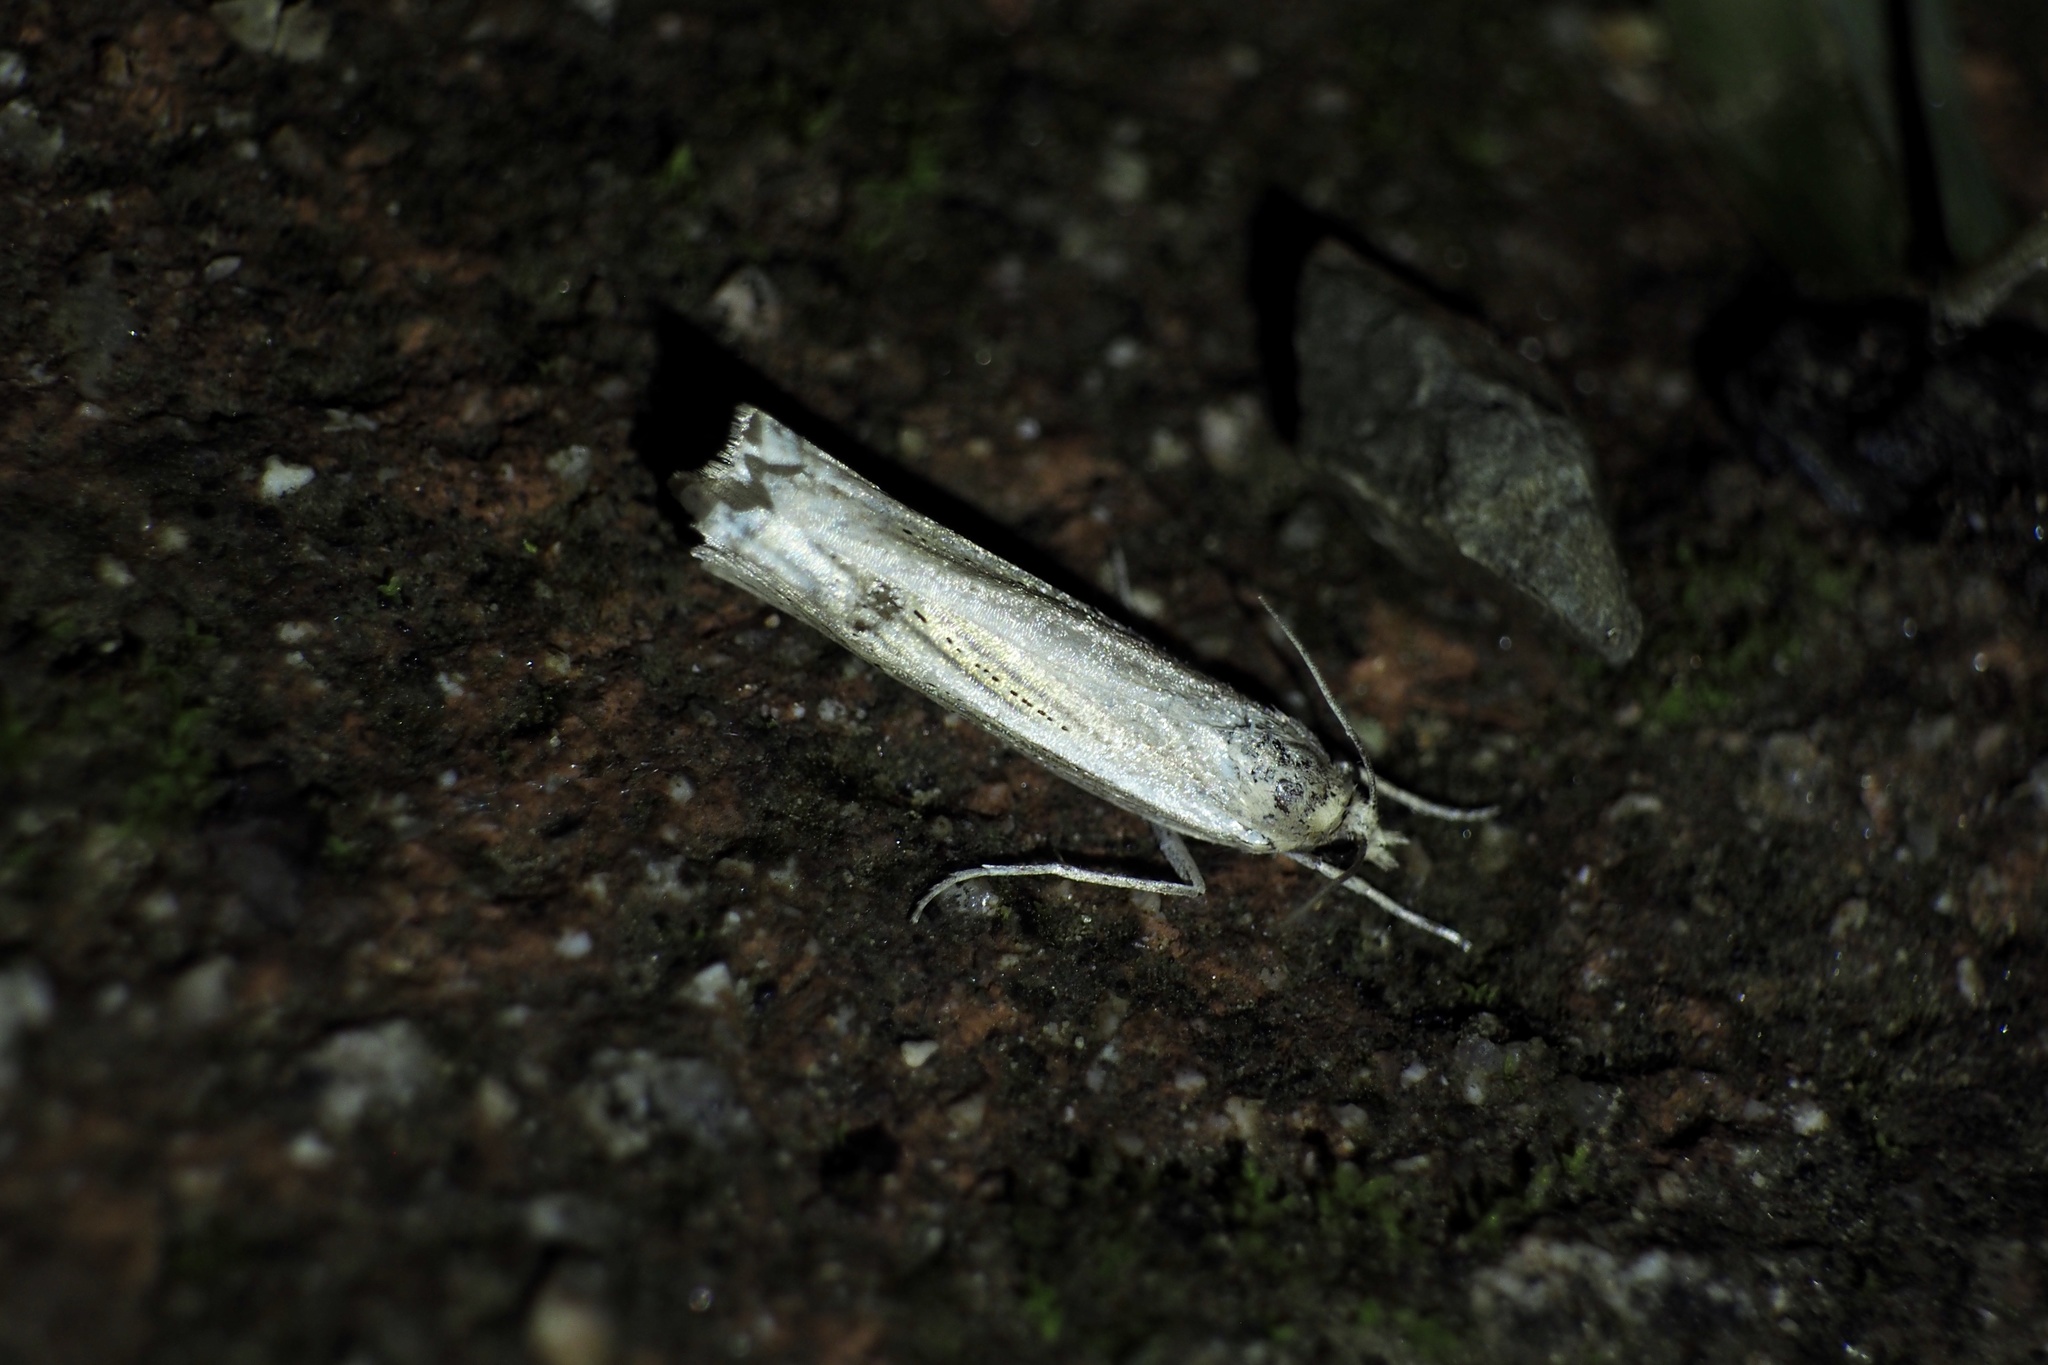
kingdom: Animalia
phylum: Arthropoda
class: Insecta
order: Lepidoptera
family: Crambidae
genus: Ancylolomia
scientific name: Ancylolomia japonica
